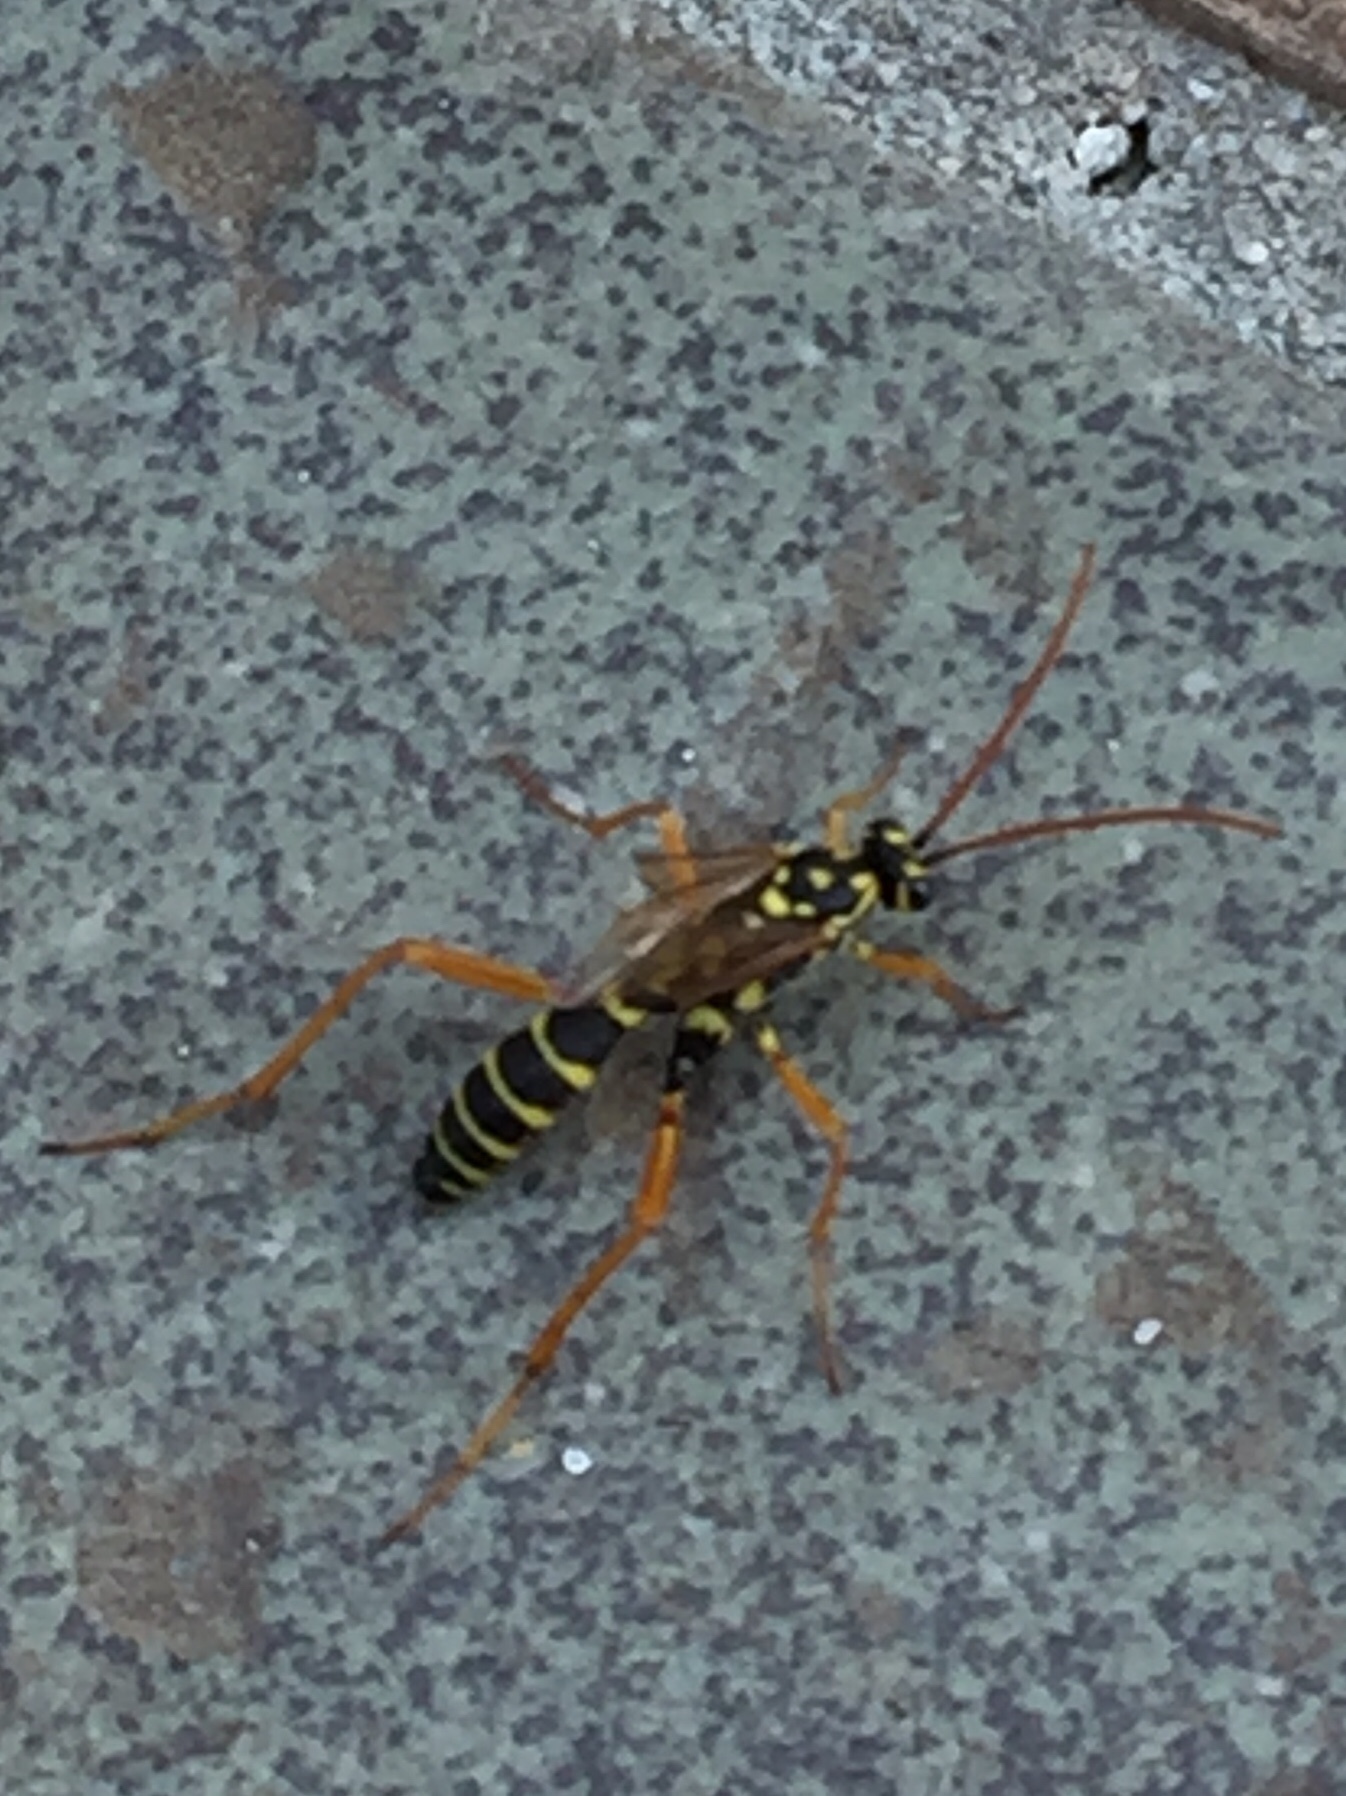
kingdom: Animalia
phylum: Arthropoda
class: Insecta
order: Hymenoptera
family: Ichneumonidae
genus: Latibulus
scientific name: Latibulus argiolus
